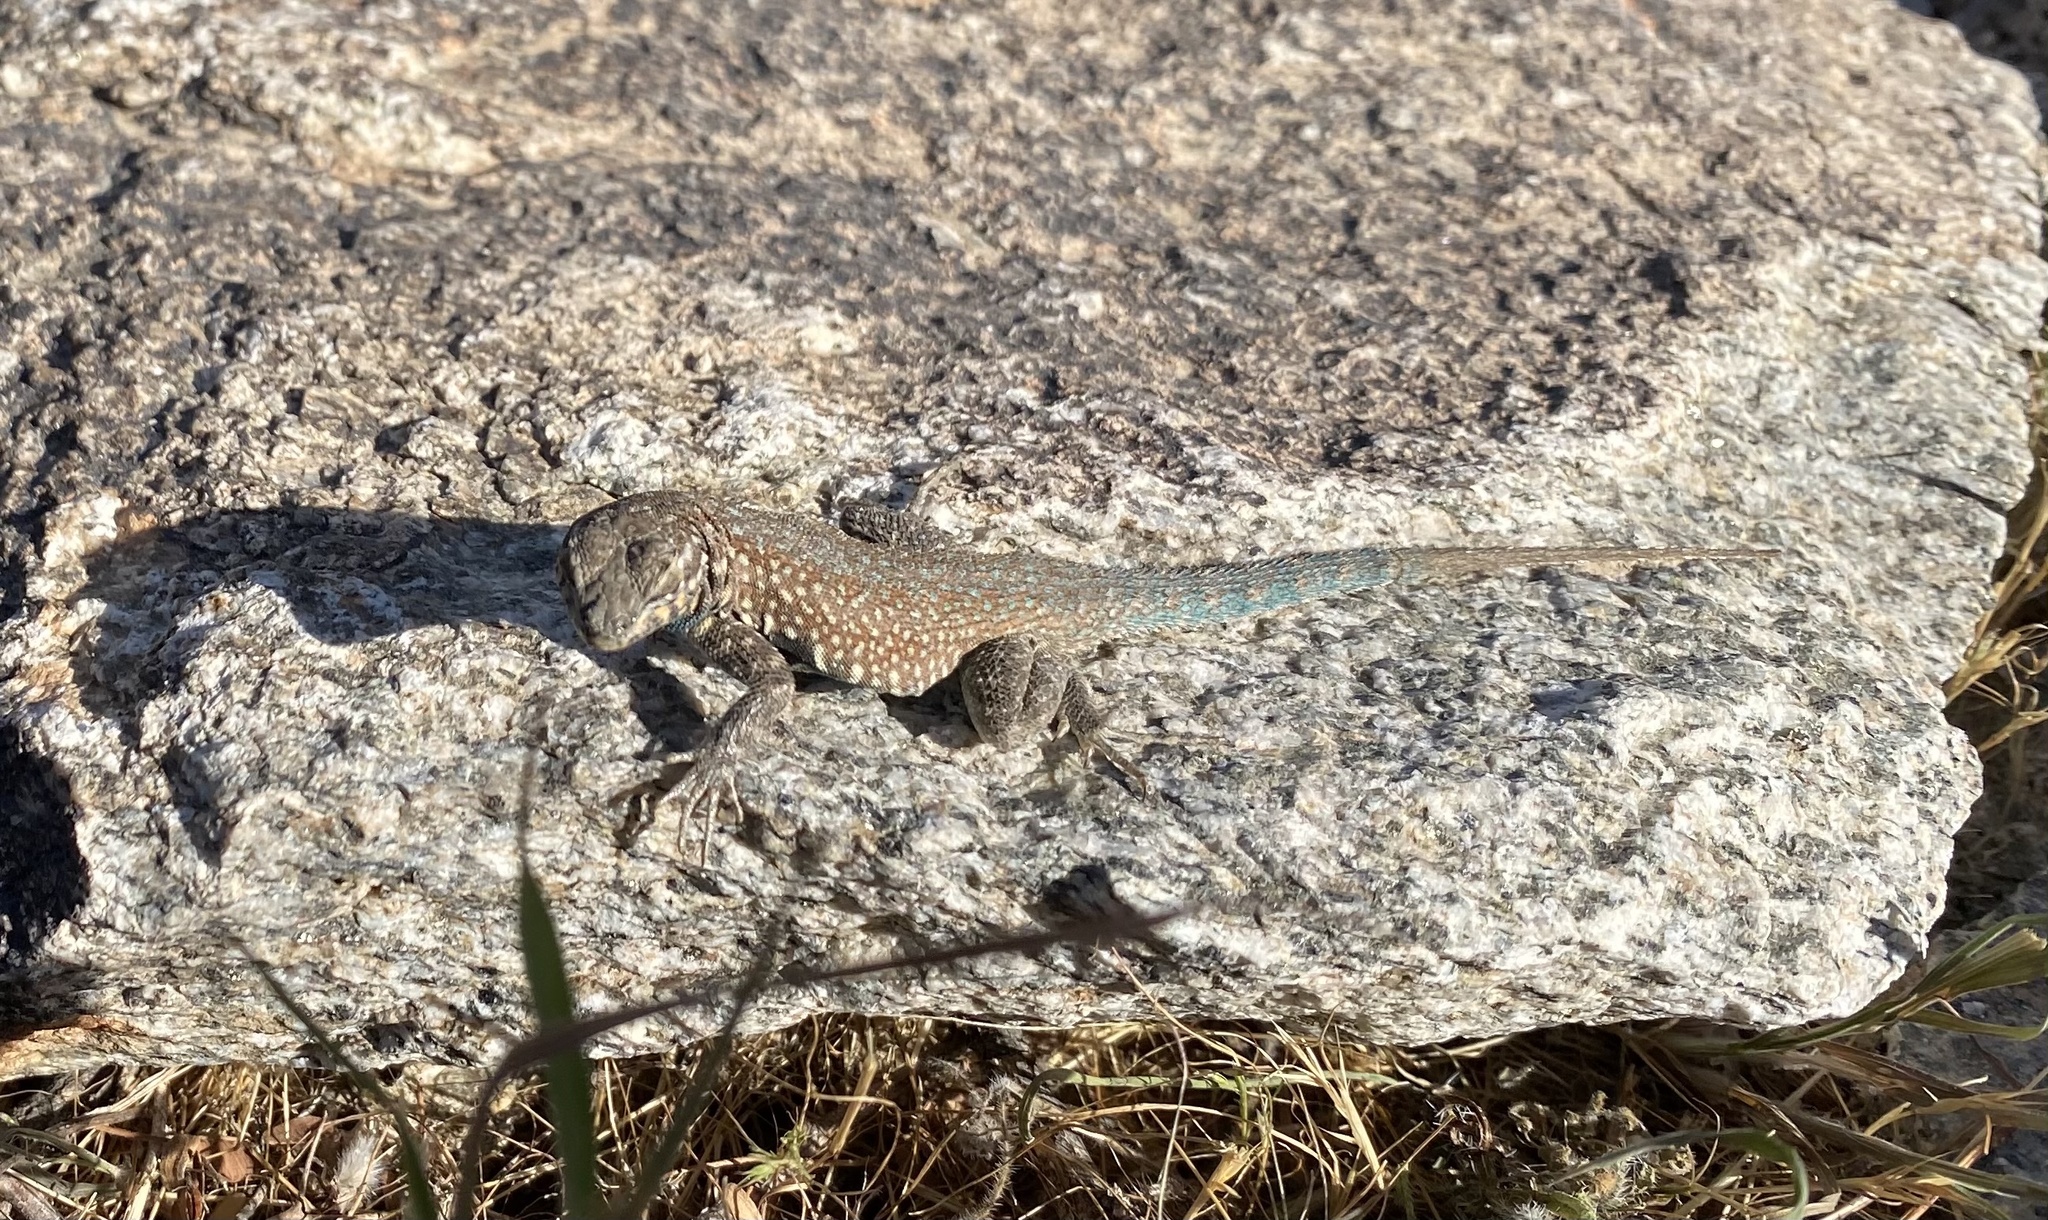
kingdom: Animalia
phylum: Chordata
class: Squamata
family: Phrynosomatidae
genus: Uta
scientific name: Uta stansburiana
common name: Side-blotched lizard
